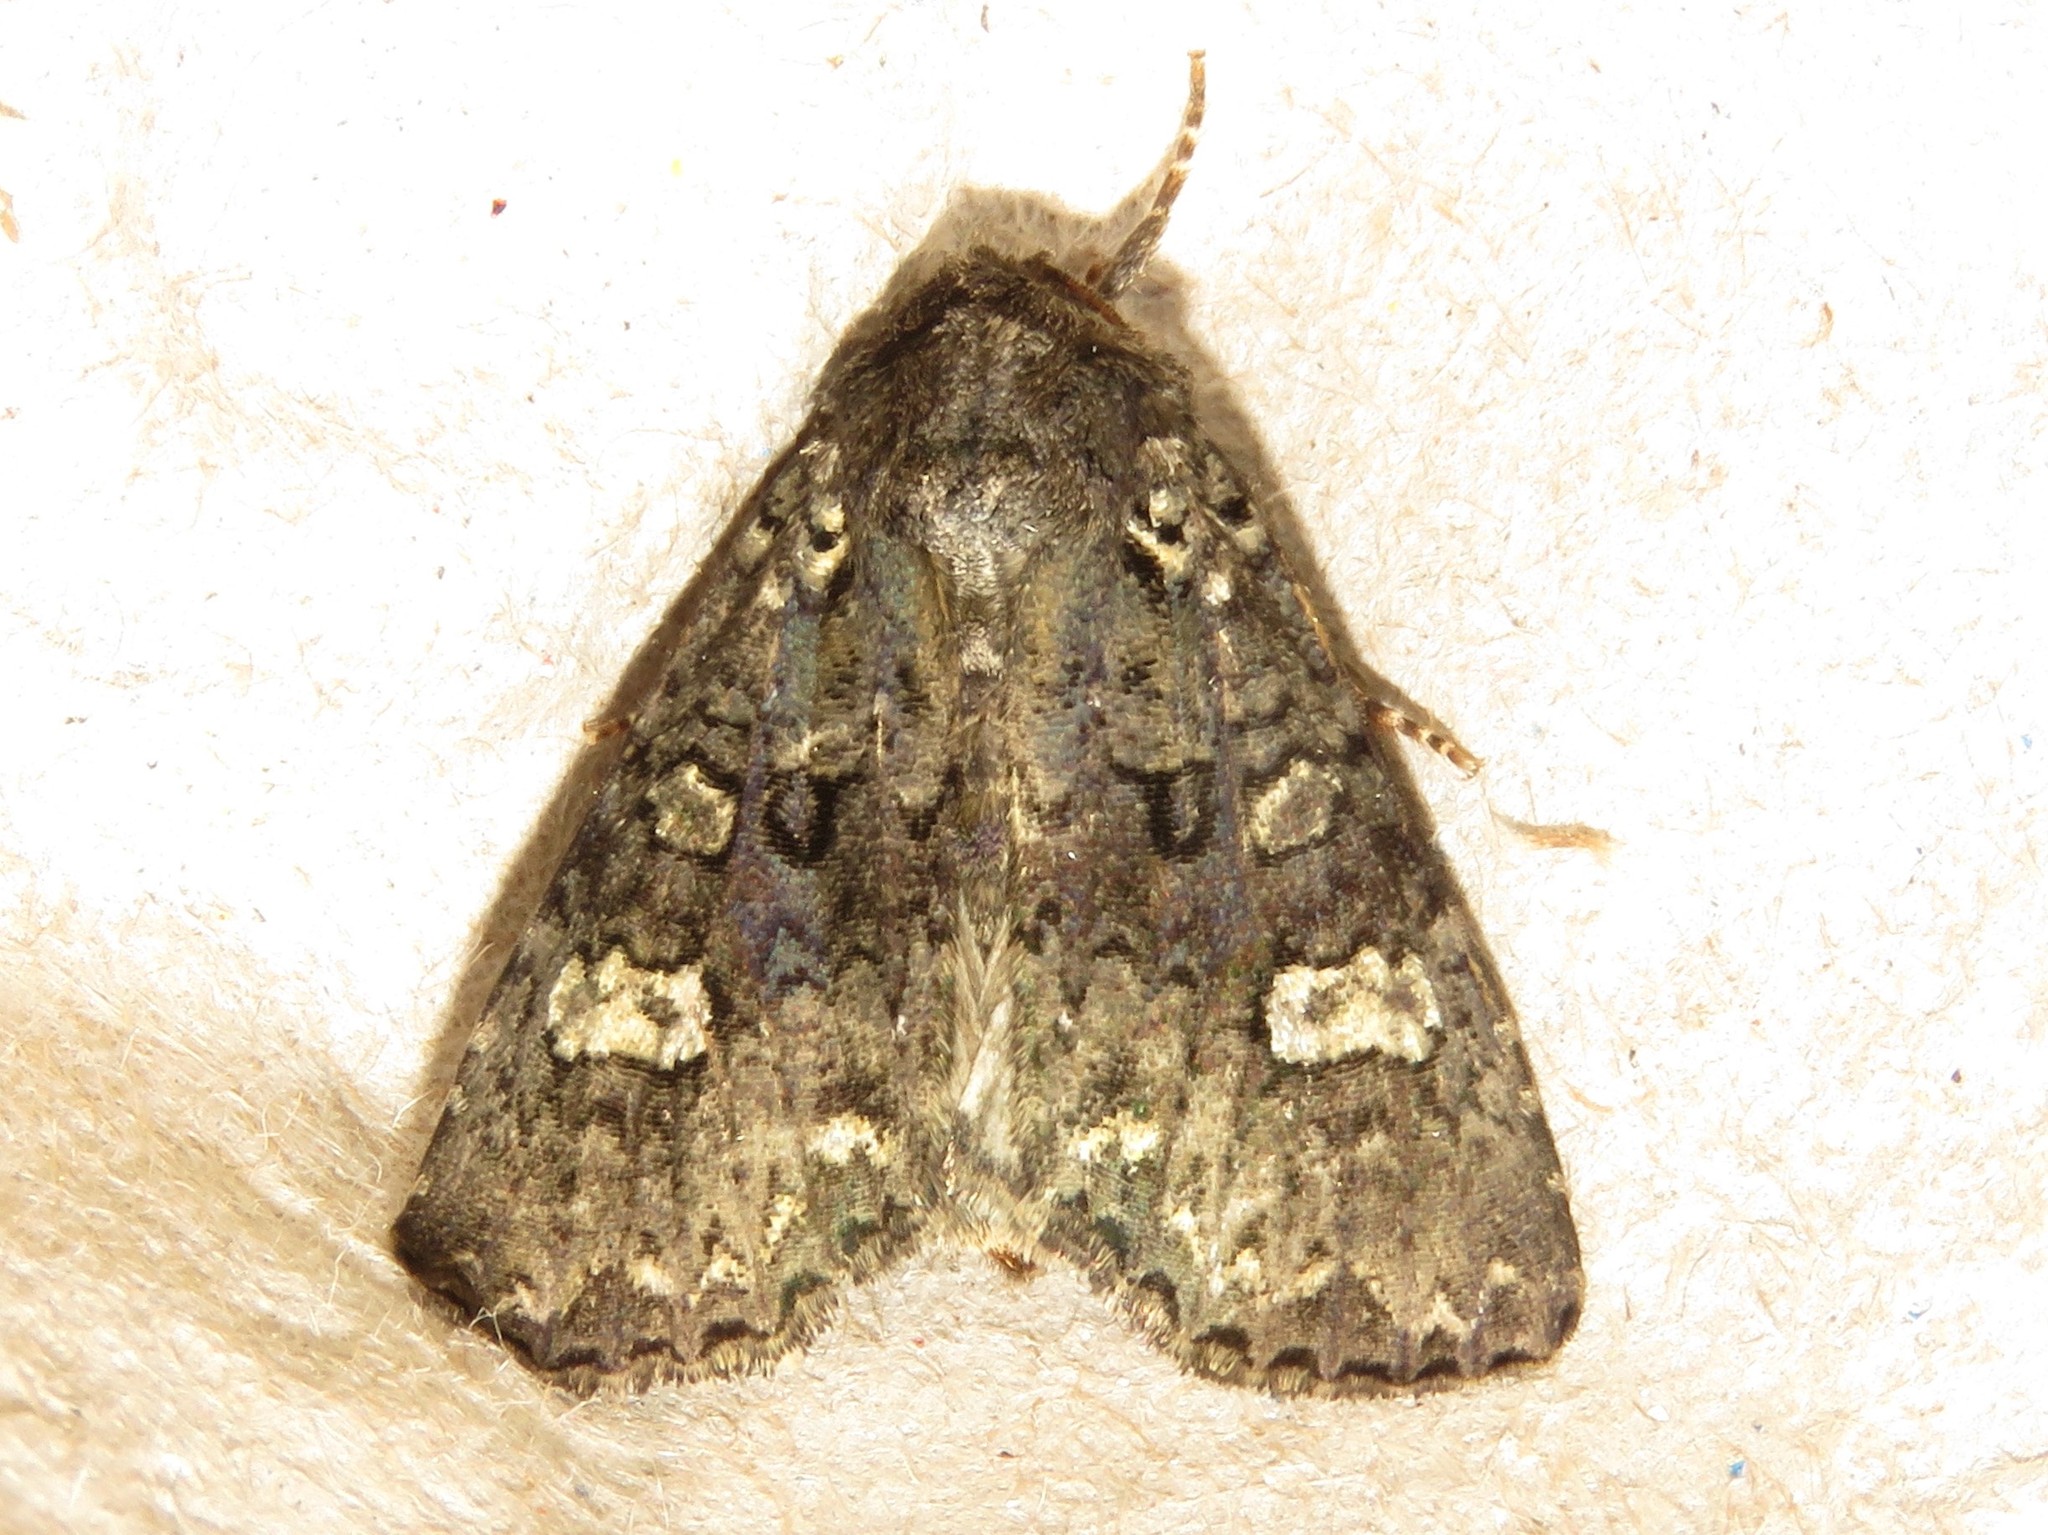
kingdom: Animalia
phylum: Arthropoda
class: Insecta
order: Lepidoptera
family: Noctuidae
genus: Melanchra
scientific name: Melanchra adjuncta
